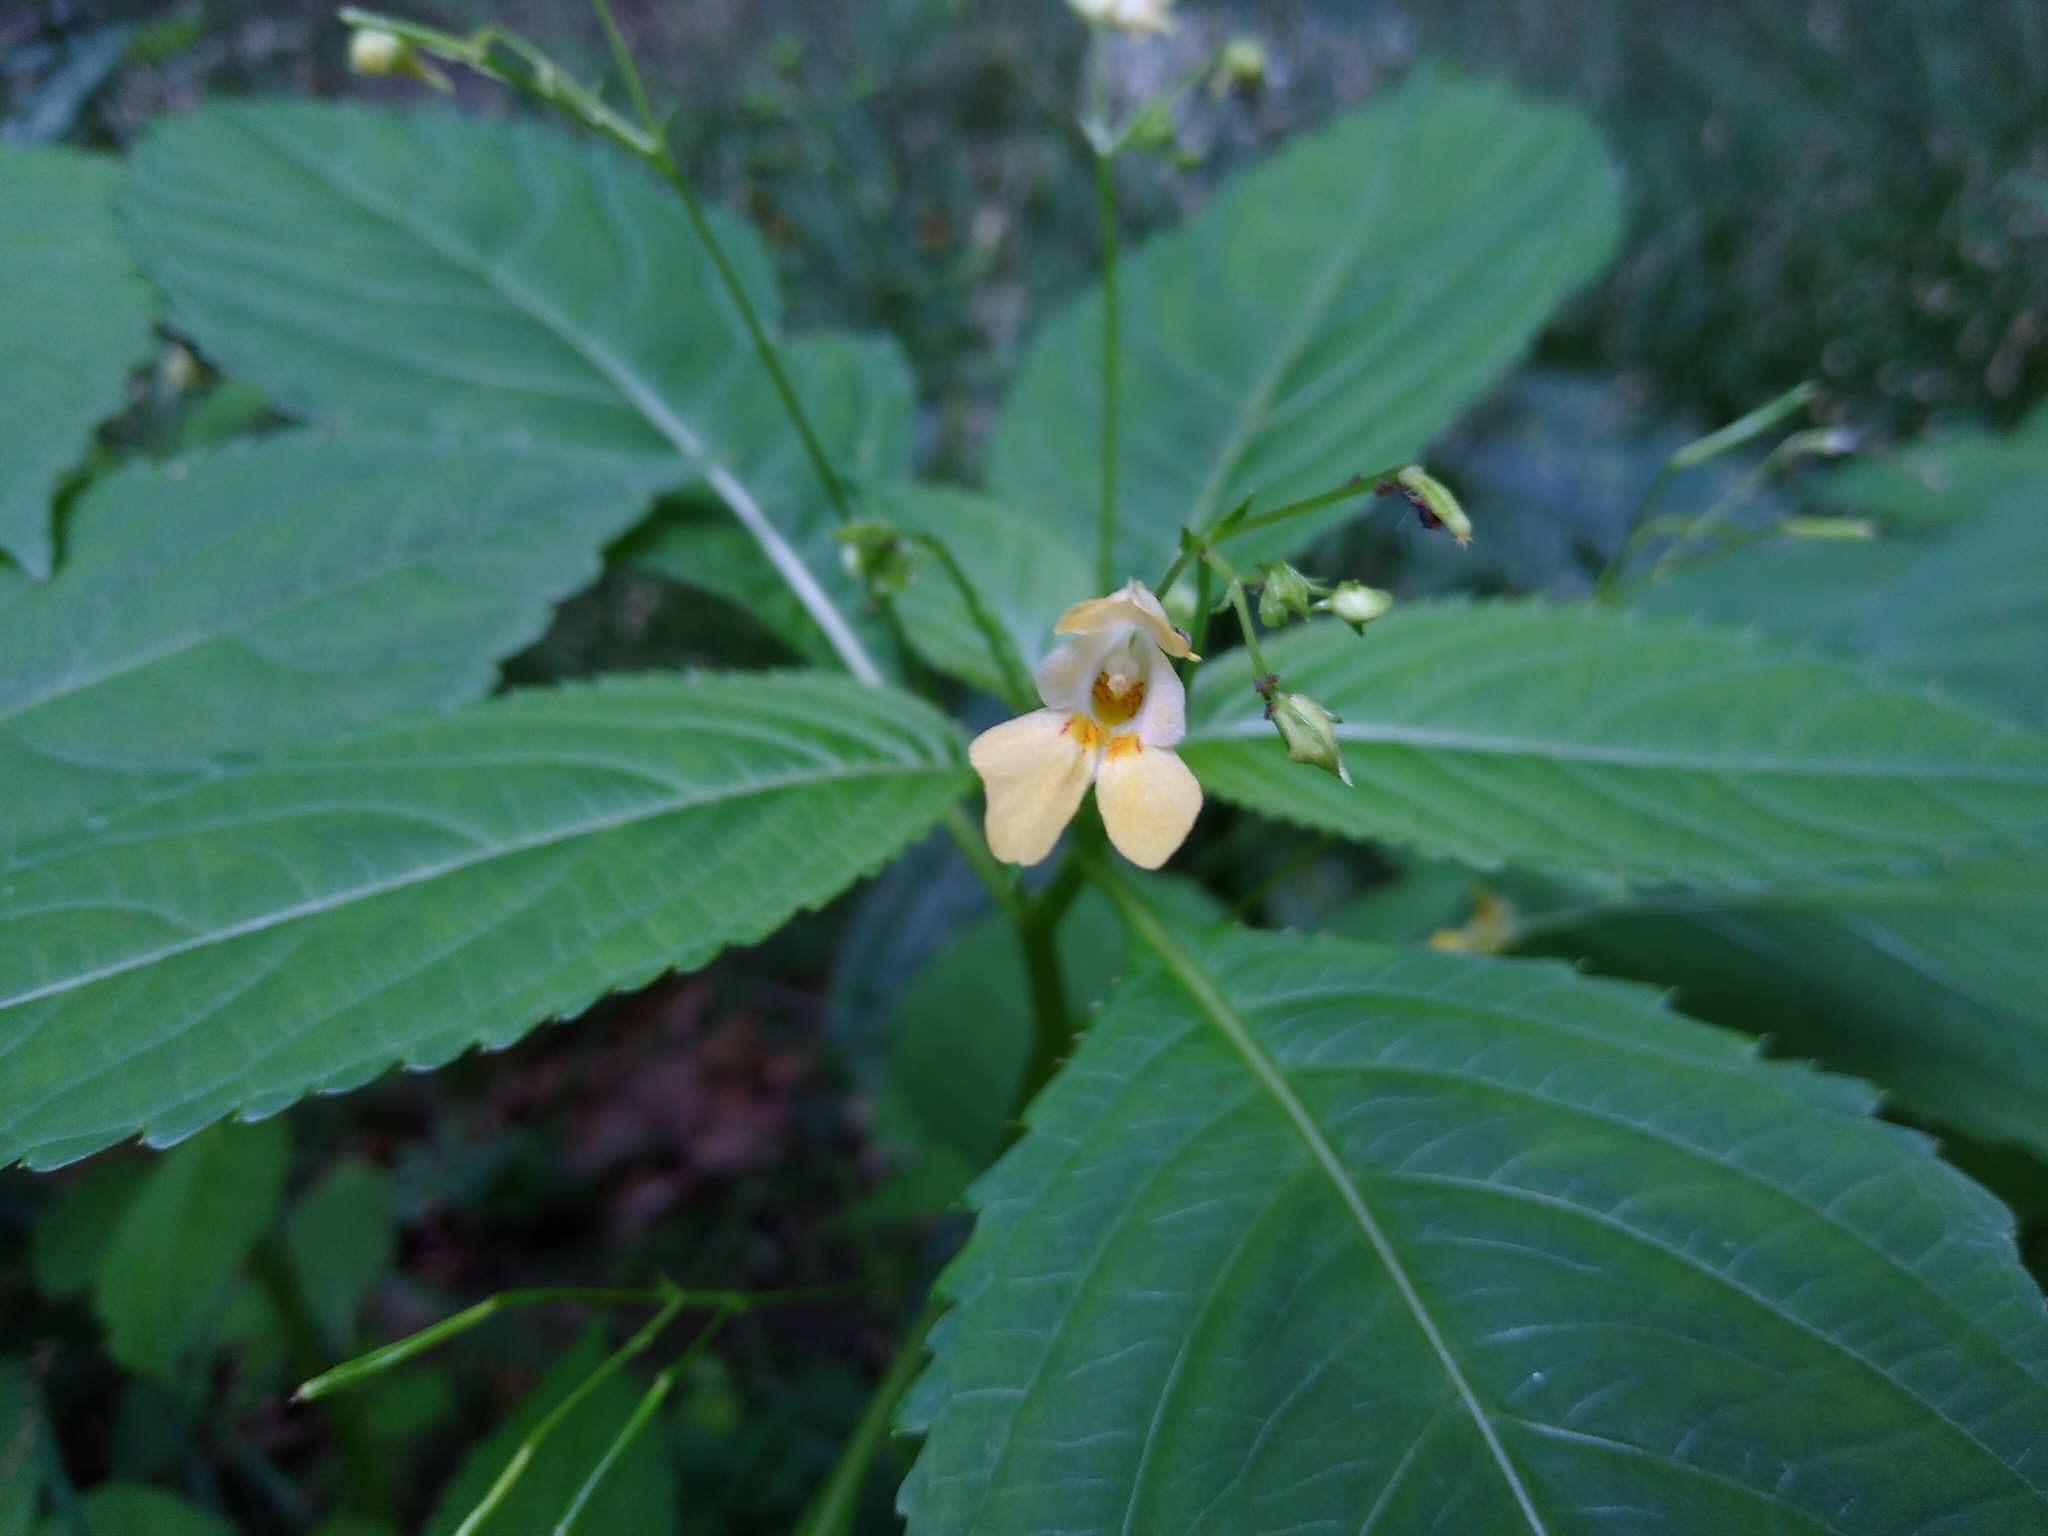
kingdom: Plantae
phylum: Tracheophyta
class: Magnoliopsida
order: Ericales
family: Balsaminaceae
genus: Impatiens
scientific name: Impatiens parviflora
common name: Small balsam
